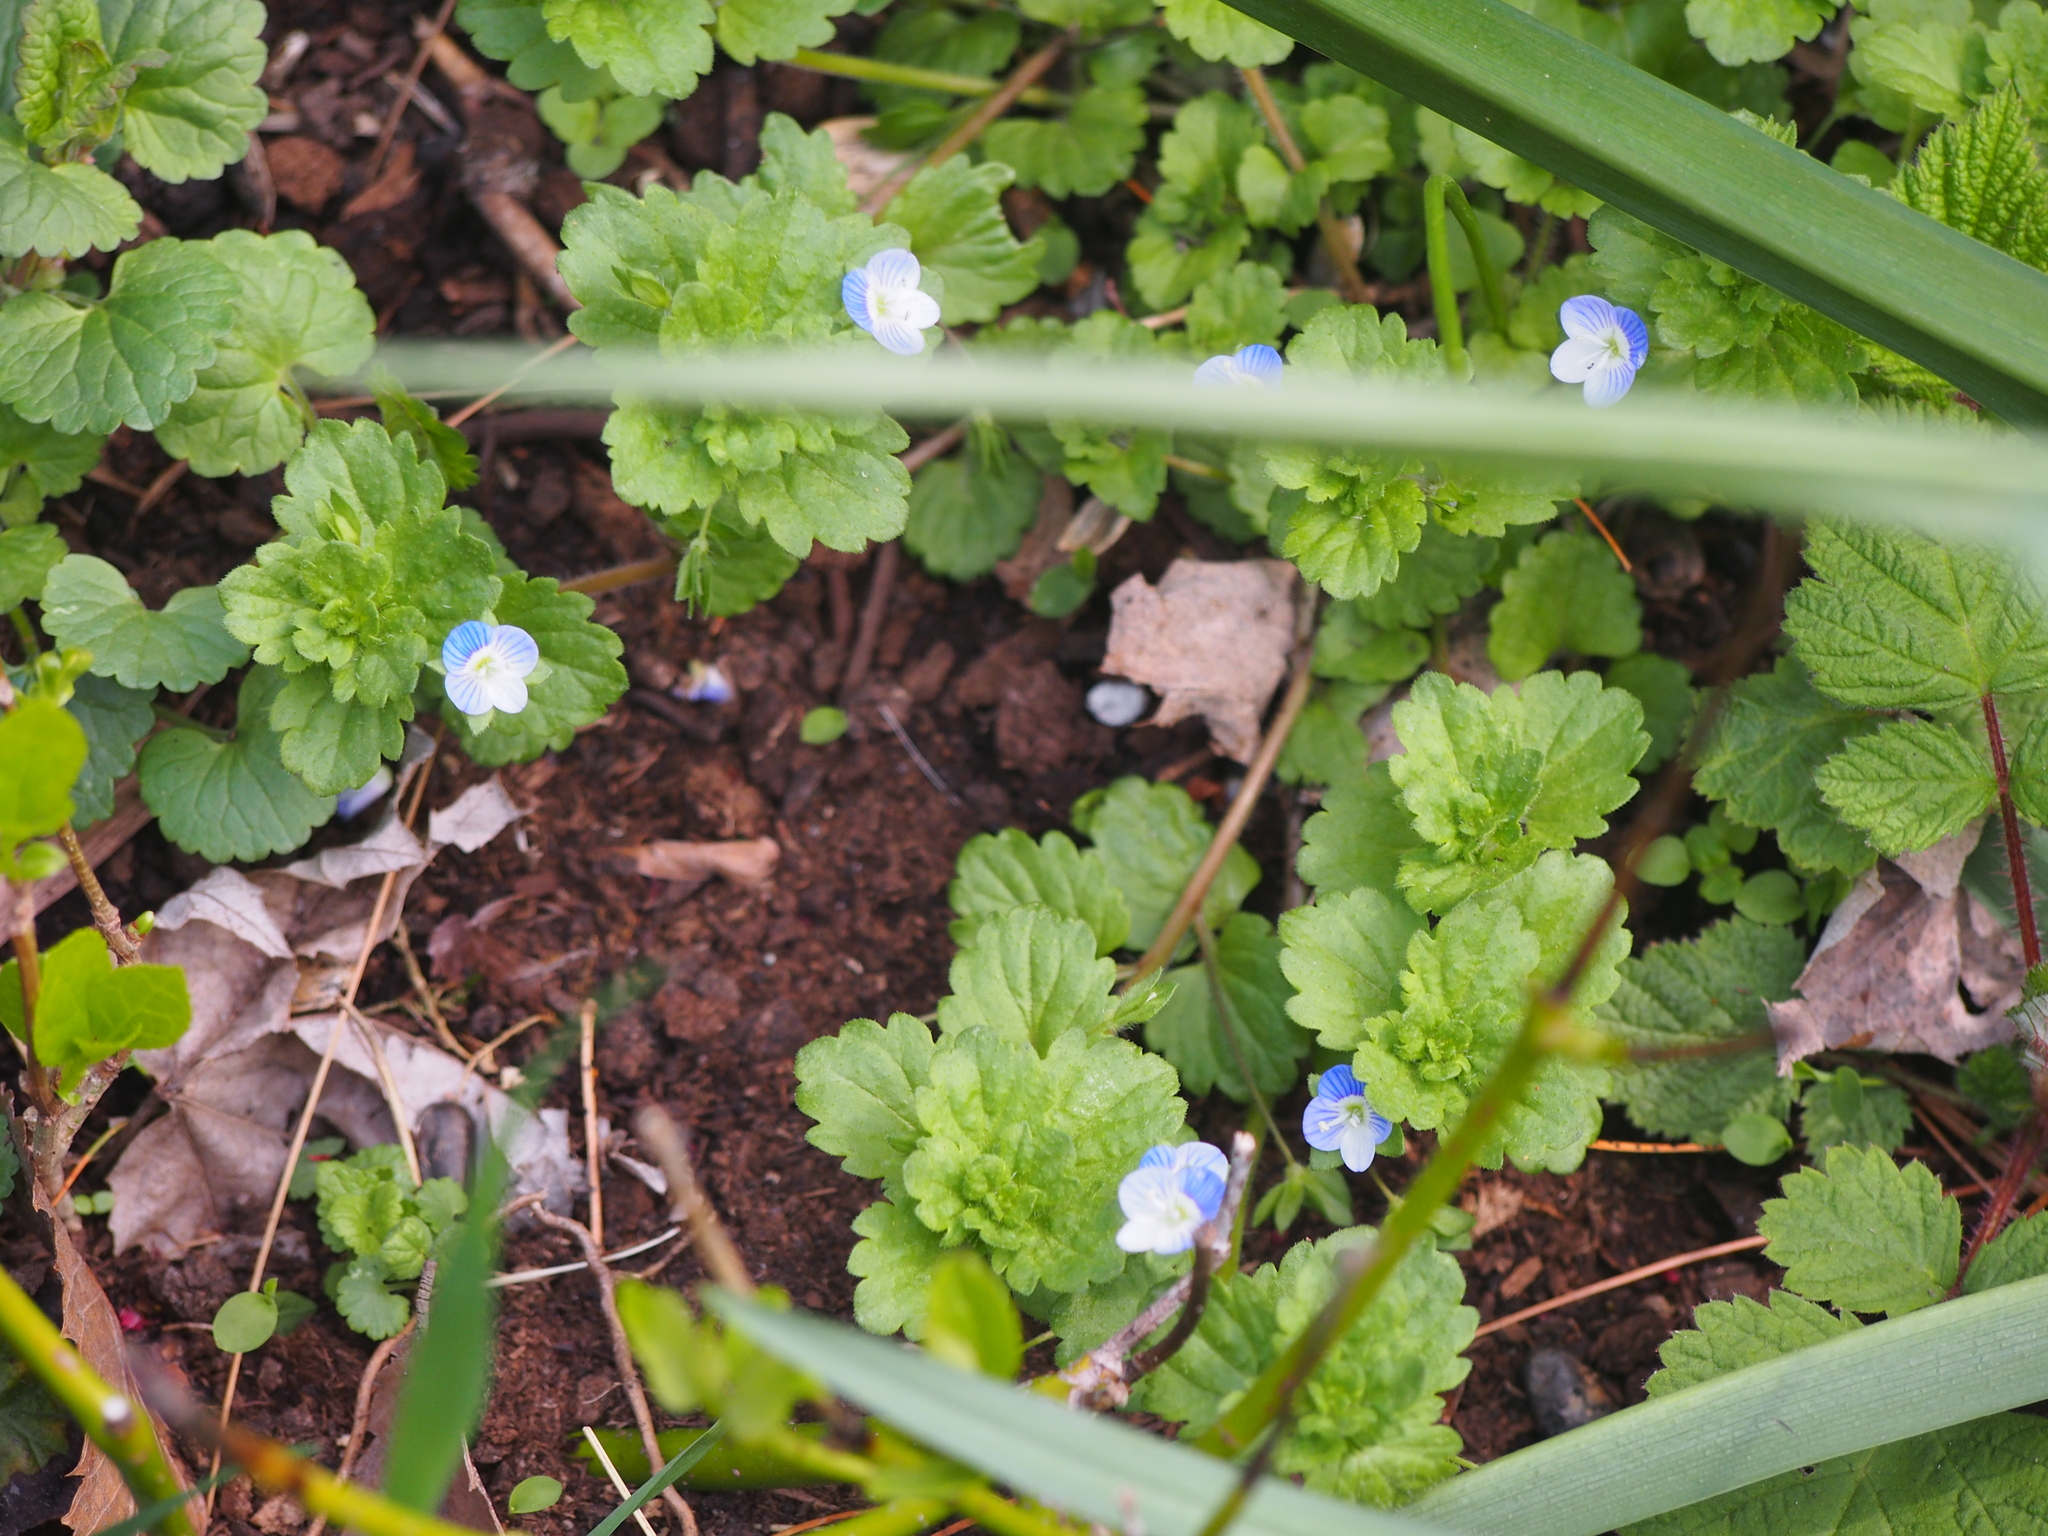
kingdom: Plantae
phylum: Tracheophyta
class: Magnoliopsida
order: Lamiales
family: Plantaginaceae
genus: Veronica
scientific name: Veronica persica
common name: Common field-speedwell
